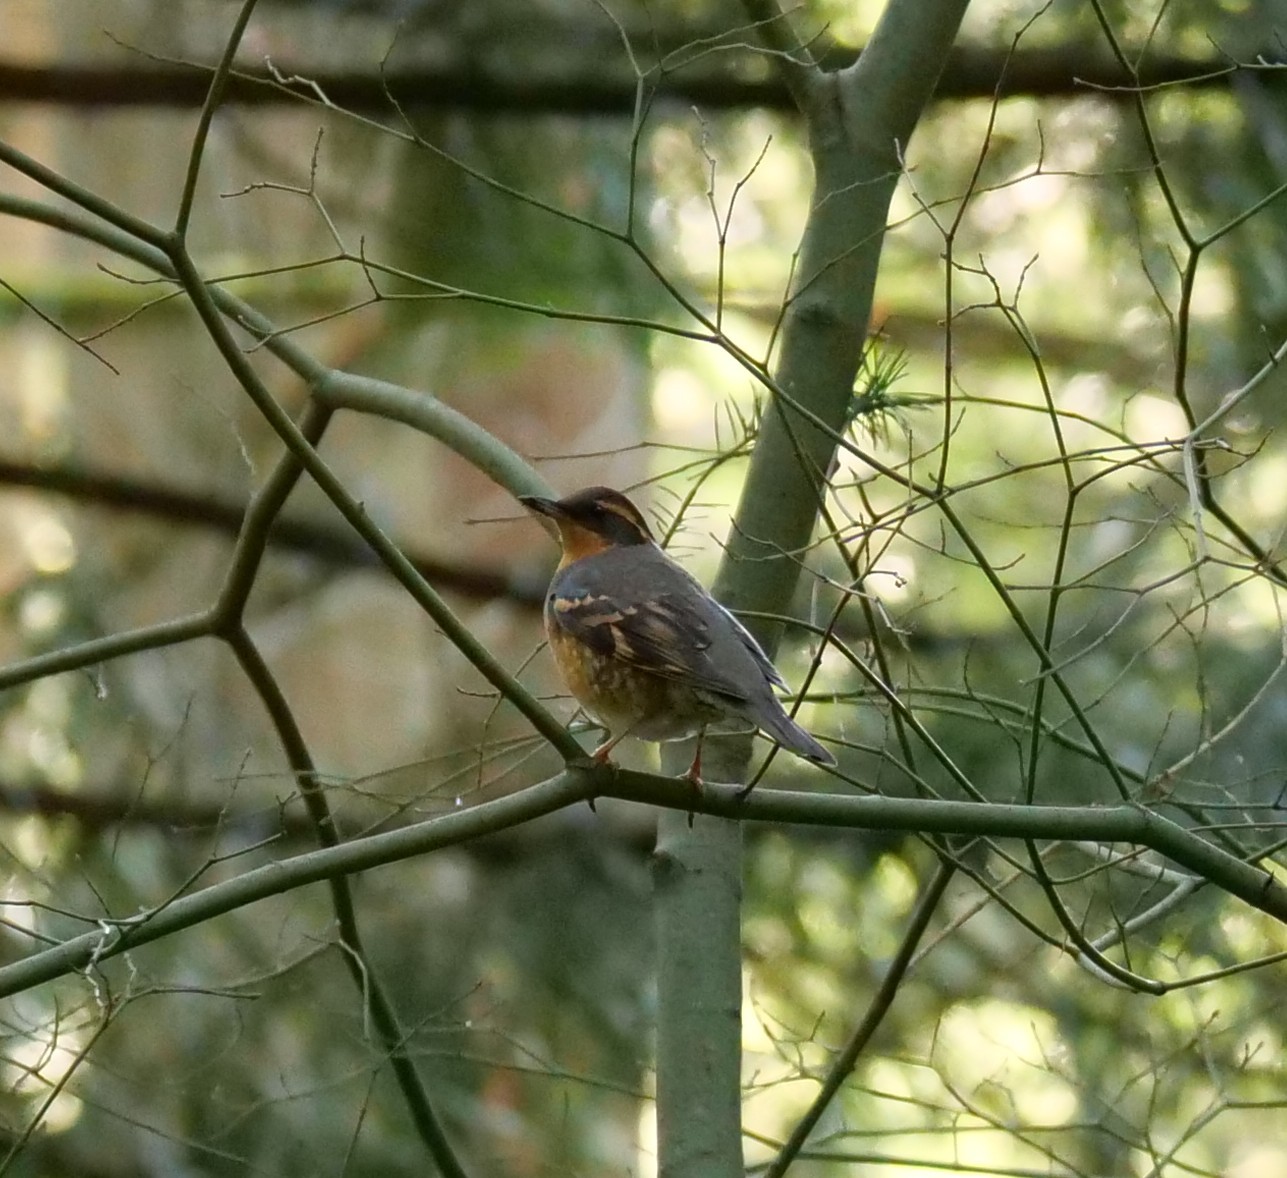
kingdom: Animalia
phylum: Chordata
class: Aves
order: Passeriformes
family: Turdidae
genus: Ixoreus
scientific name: Ixoreus naevius
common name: Varied thrush
